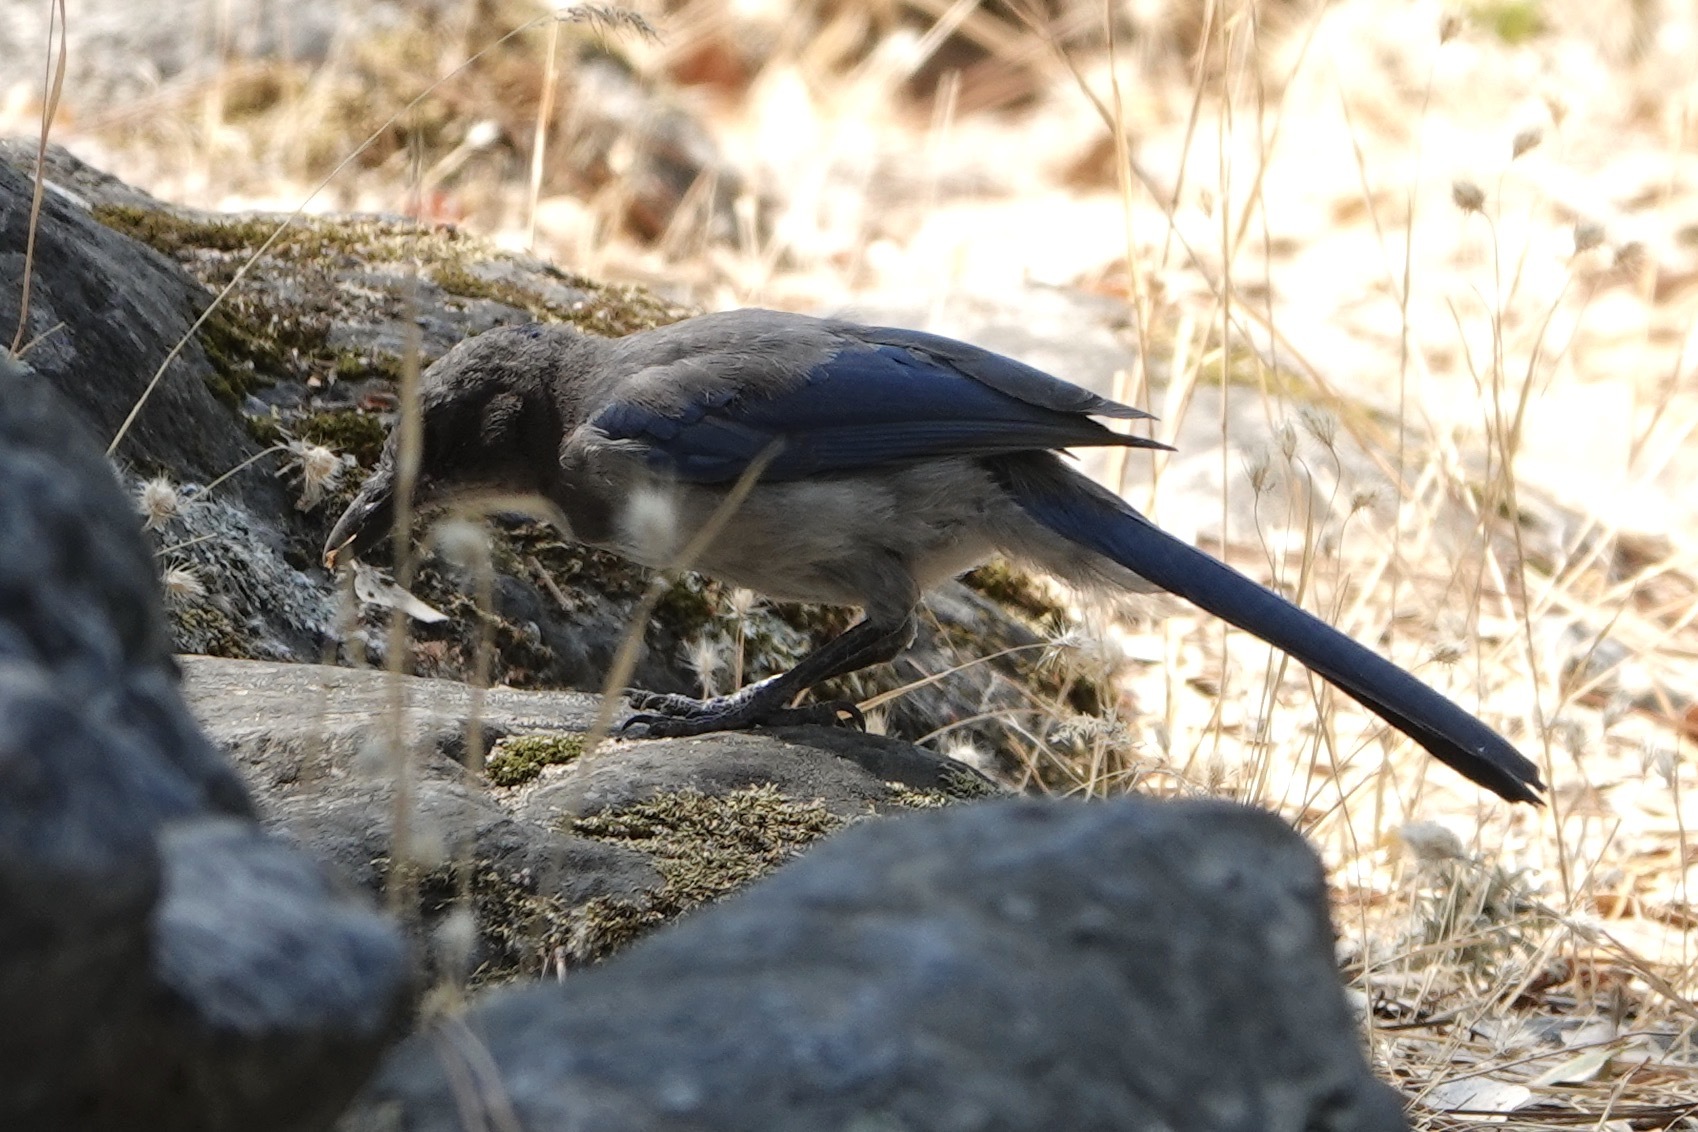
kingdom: Animalia
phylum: Chordata
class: Aves
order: Passeriformes
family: Corvidae
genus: Aphelocoma
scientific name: Aphelocoma californica
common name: California scrub-jay
